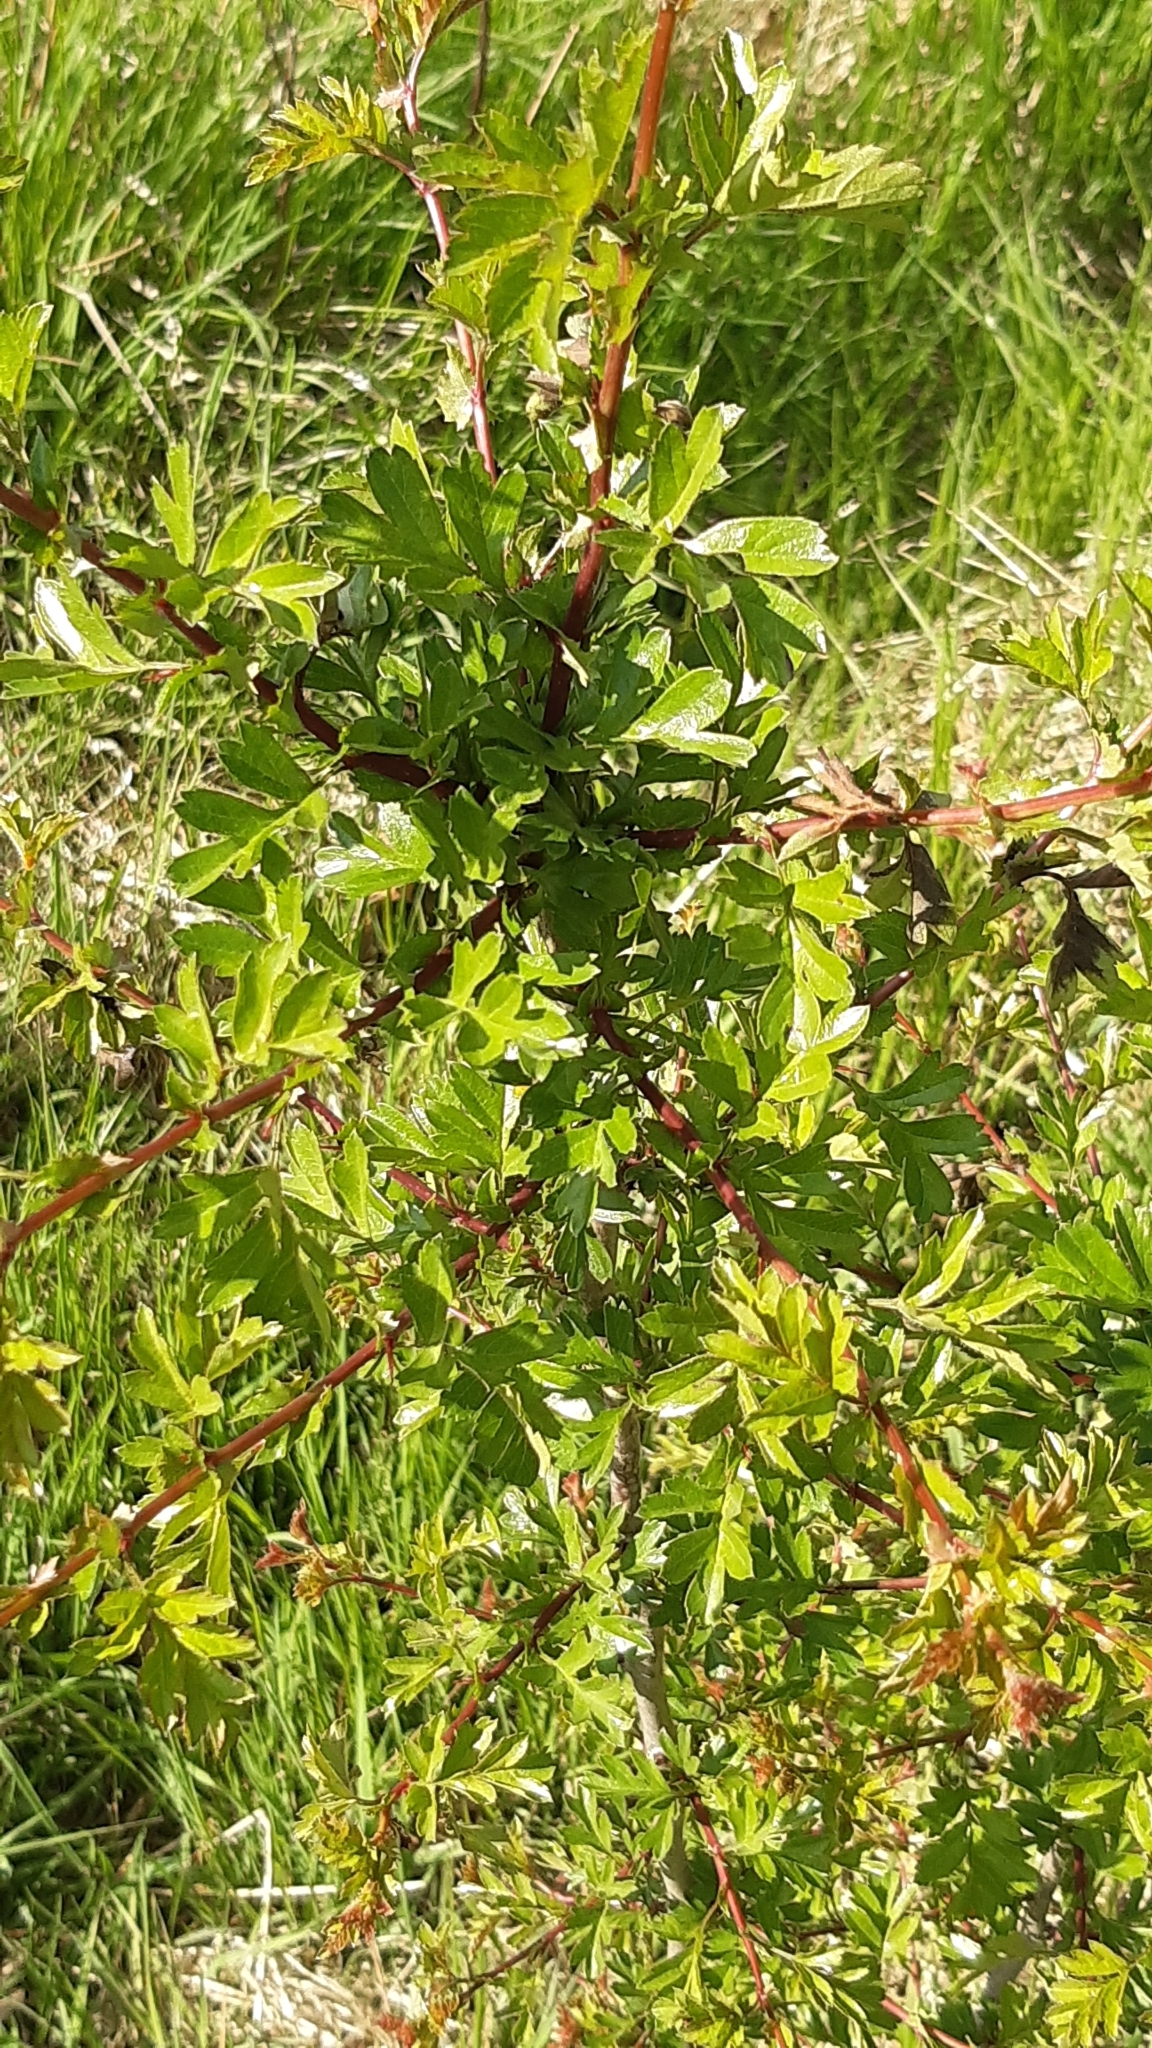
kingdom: Plantae
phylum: Tracheophyta
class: Magnoliopsida
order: Rosales
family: Rosaceae
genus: Crataegus
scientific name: Crataegus monogyna
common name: Hawthorn
